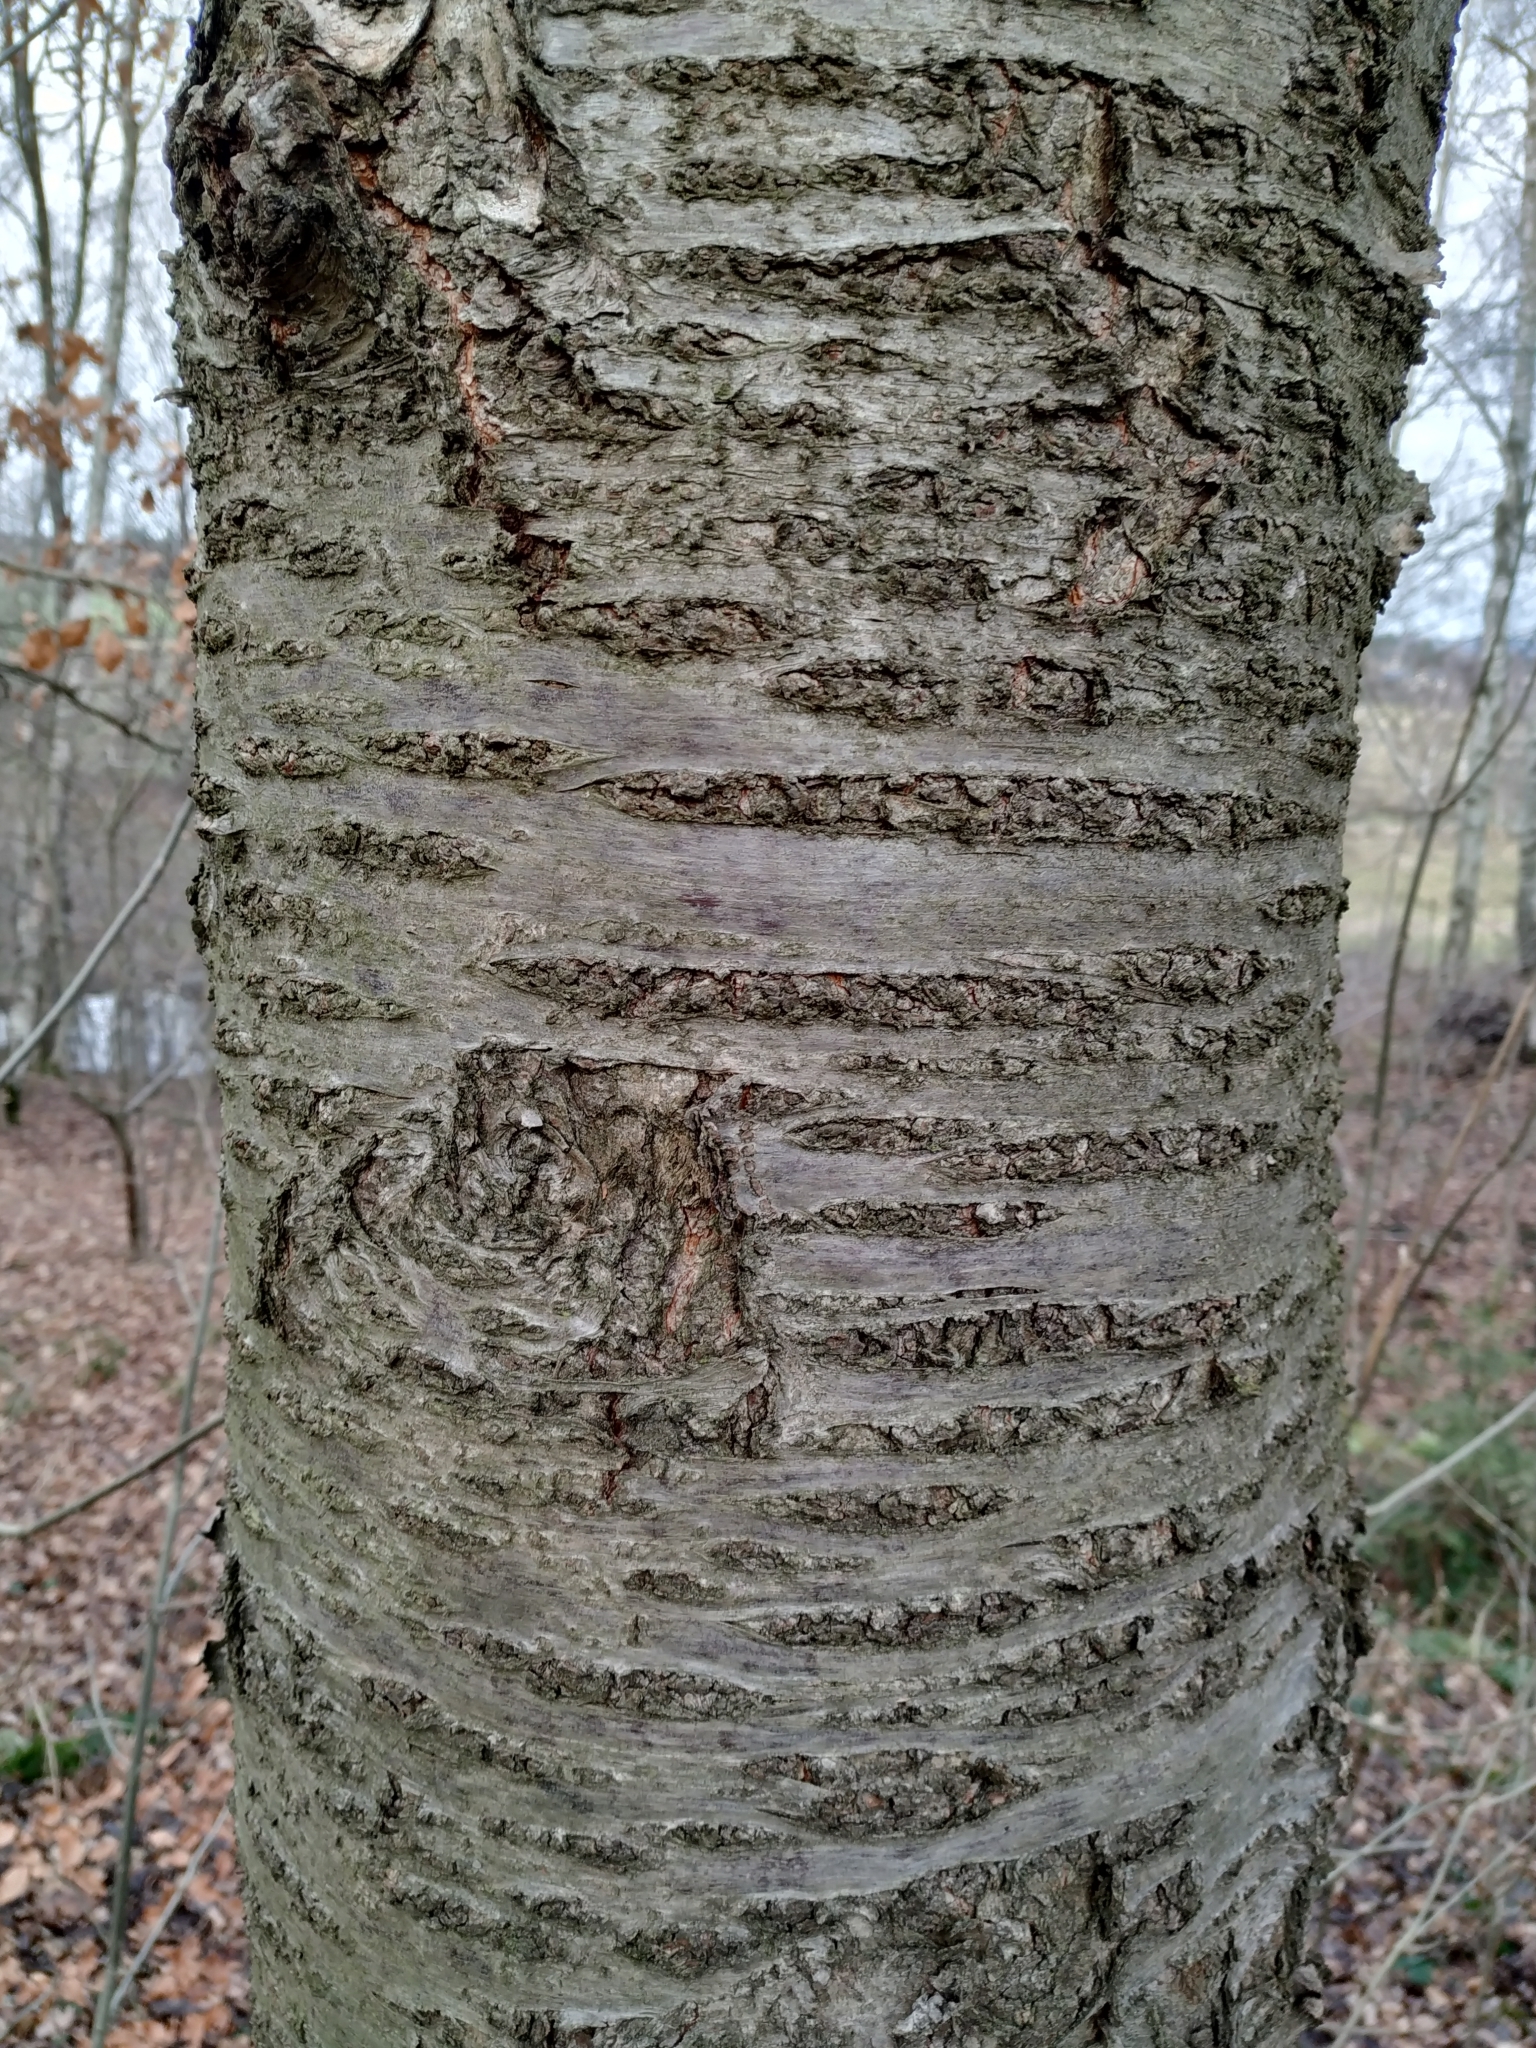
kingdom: Plantae
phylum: Tracheophyta
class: Magnoliopsida
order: Rosales
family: Rosaceae
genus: Prunus
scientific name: Prunus avium
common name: Sweet cherry
